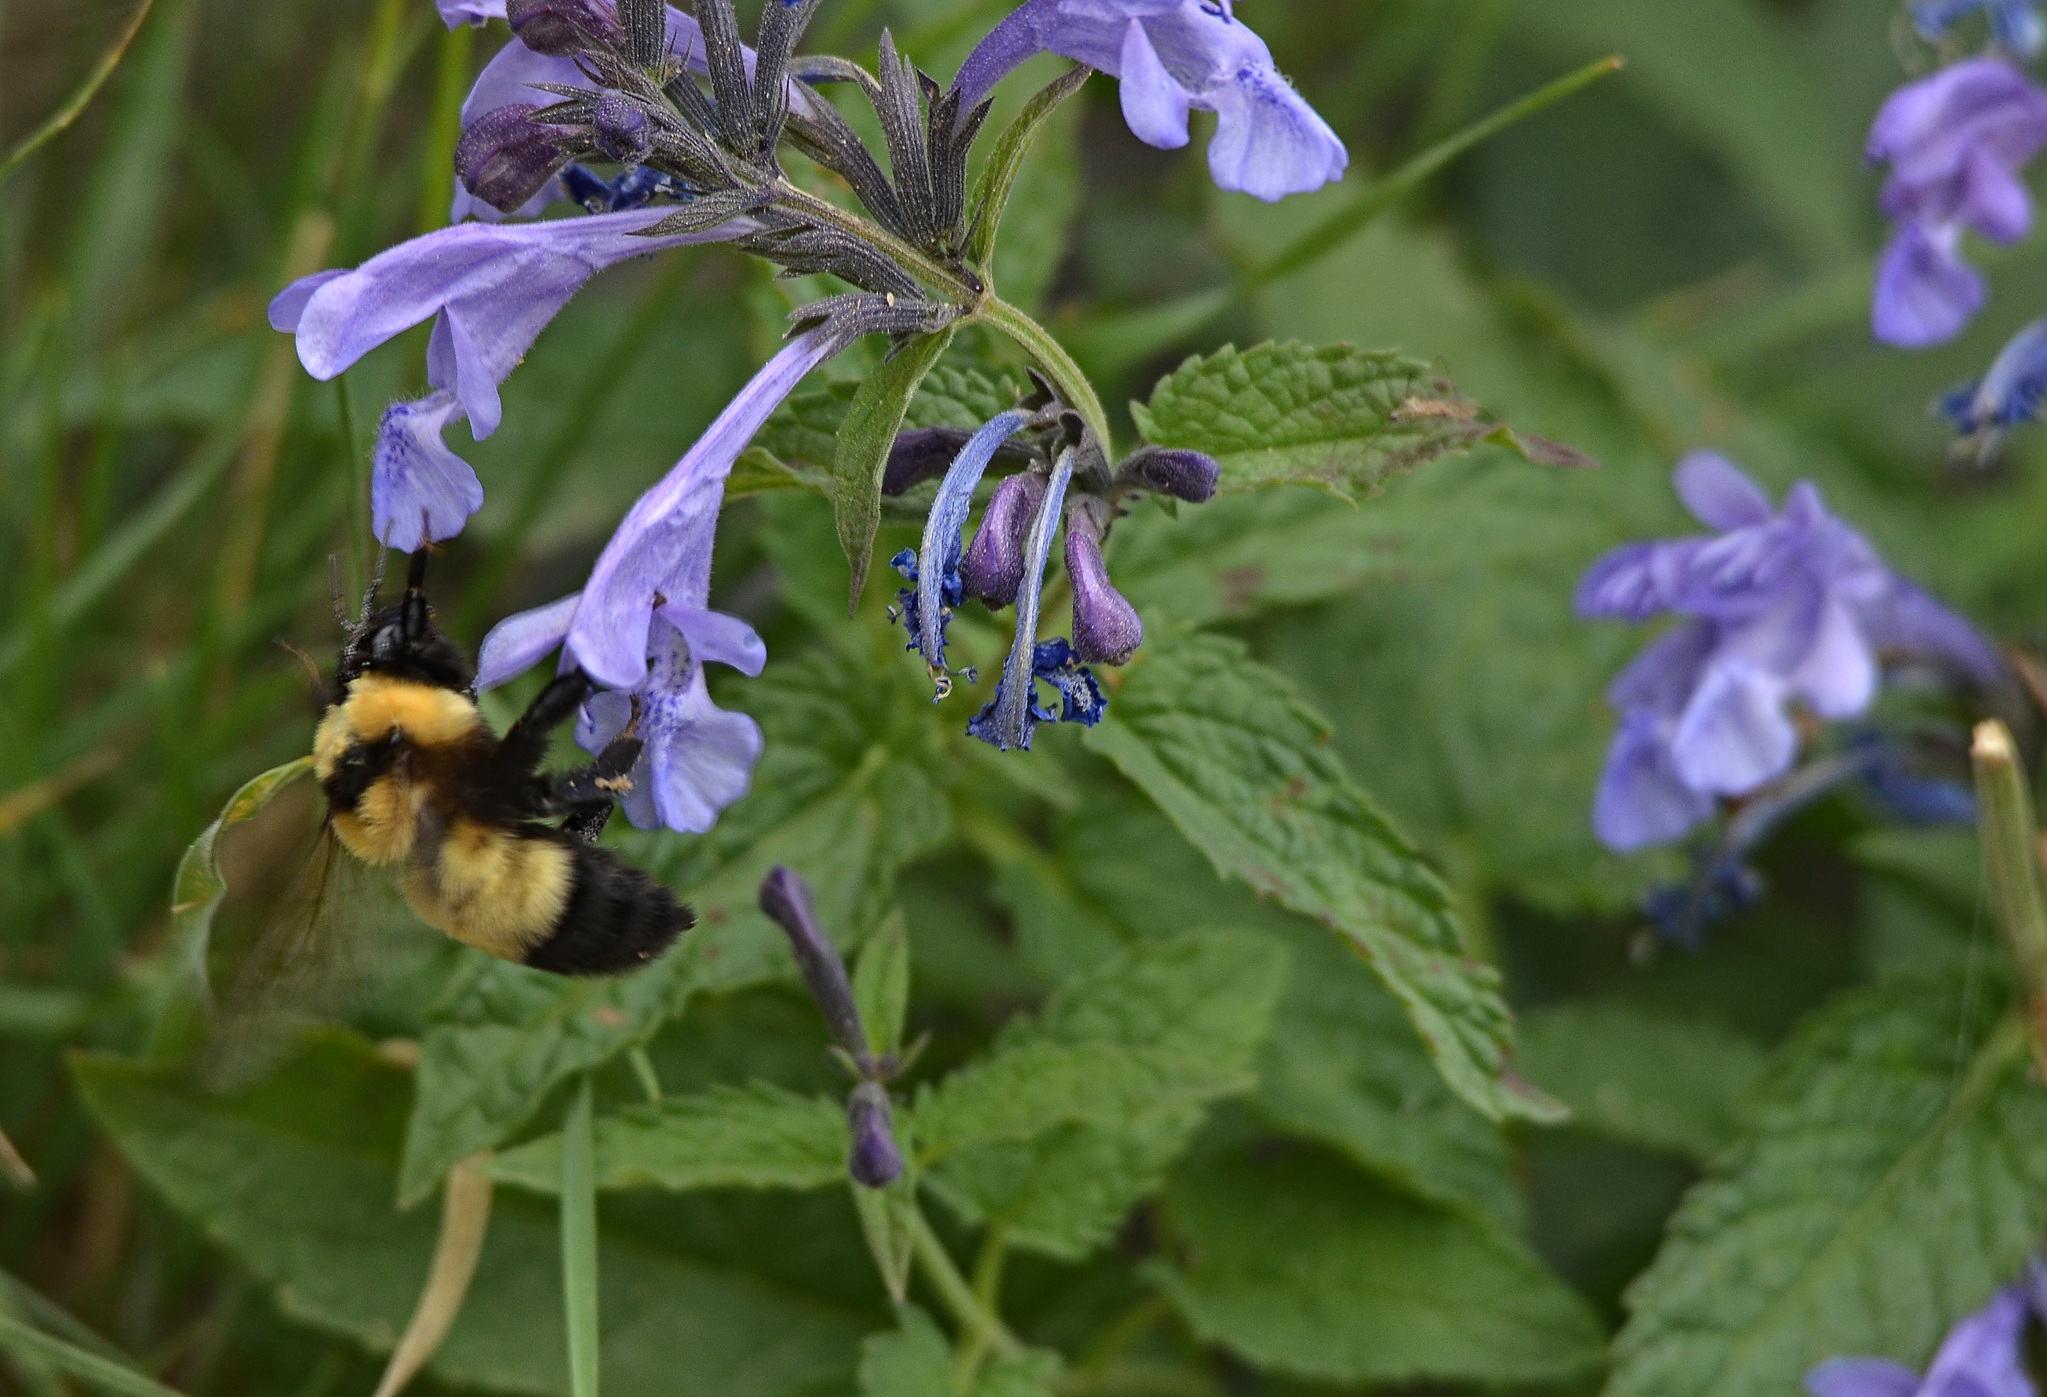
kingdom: Animalia
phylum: Arthropoda
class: Insecta
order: Hymenoptera
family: Apidae
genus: Bombus
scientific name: Bombus melanurus
